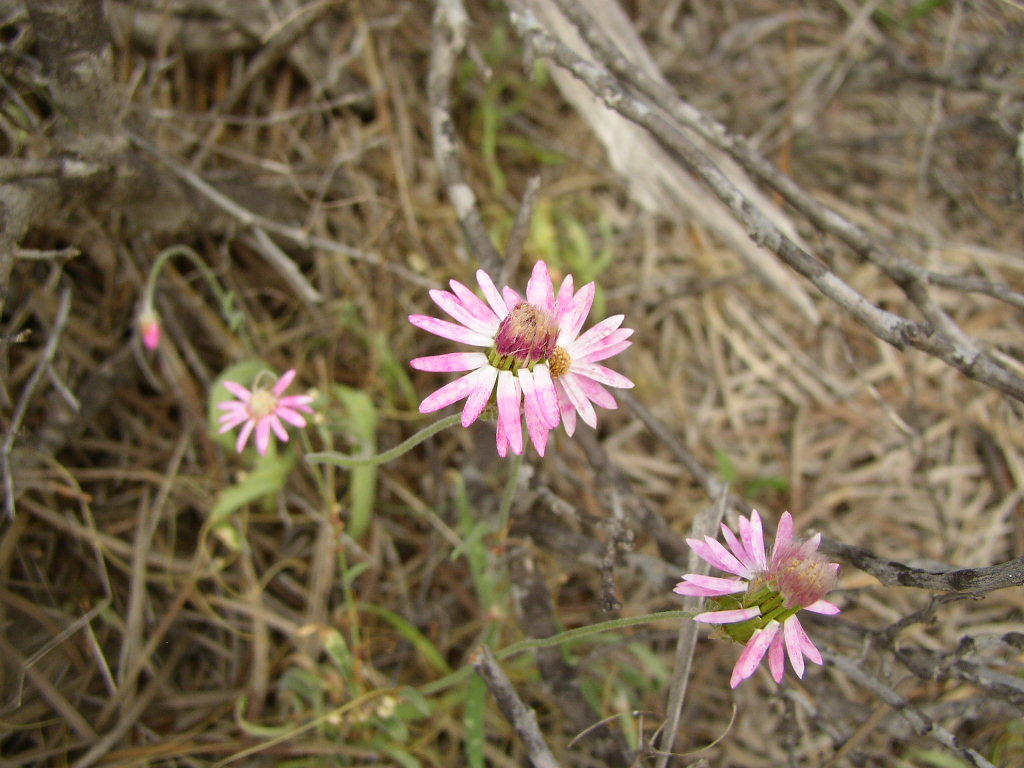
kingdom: Plantae
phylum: Tracheophyta
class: Magnoliopsida
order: Asterales
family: Asteraceae
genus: Lawrencella
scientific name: Lawrencella rosea
